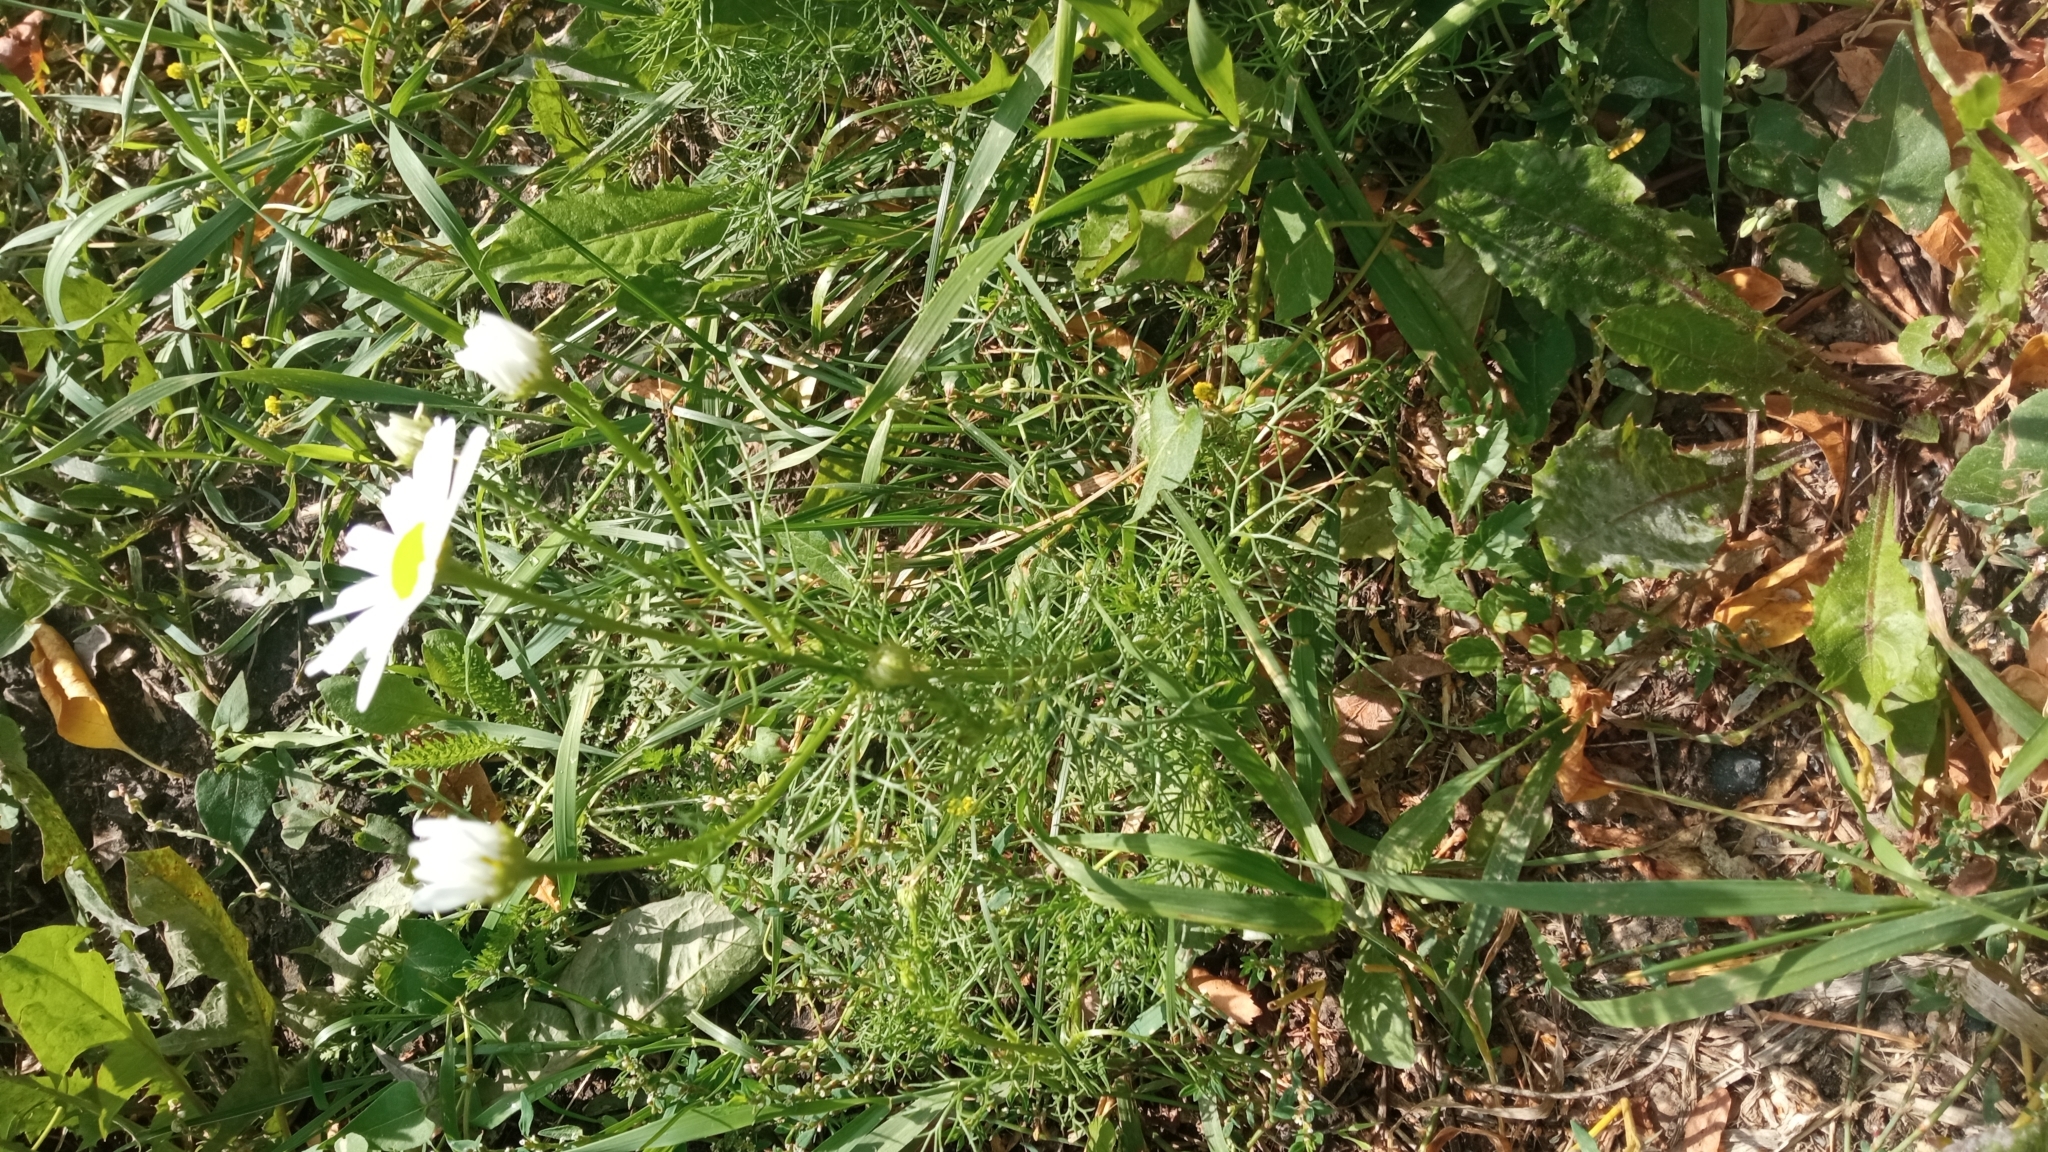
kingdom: Plantae
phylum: Tracheophyta
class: Magnoliopsida
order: Asterales
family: Asteraceae
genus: Tripleurospermum
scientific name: Tripleurospermum inodorum
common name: Scentless mayweed
